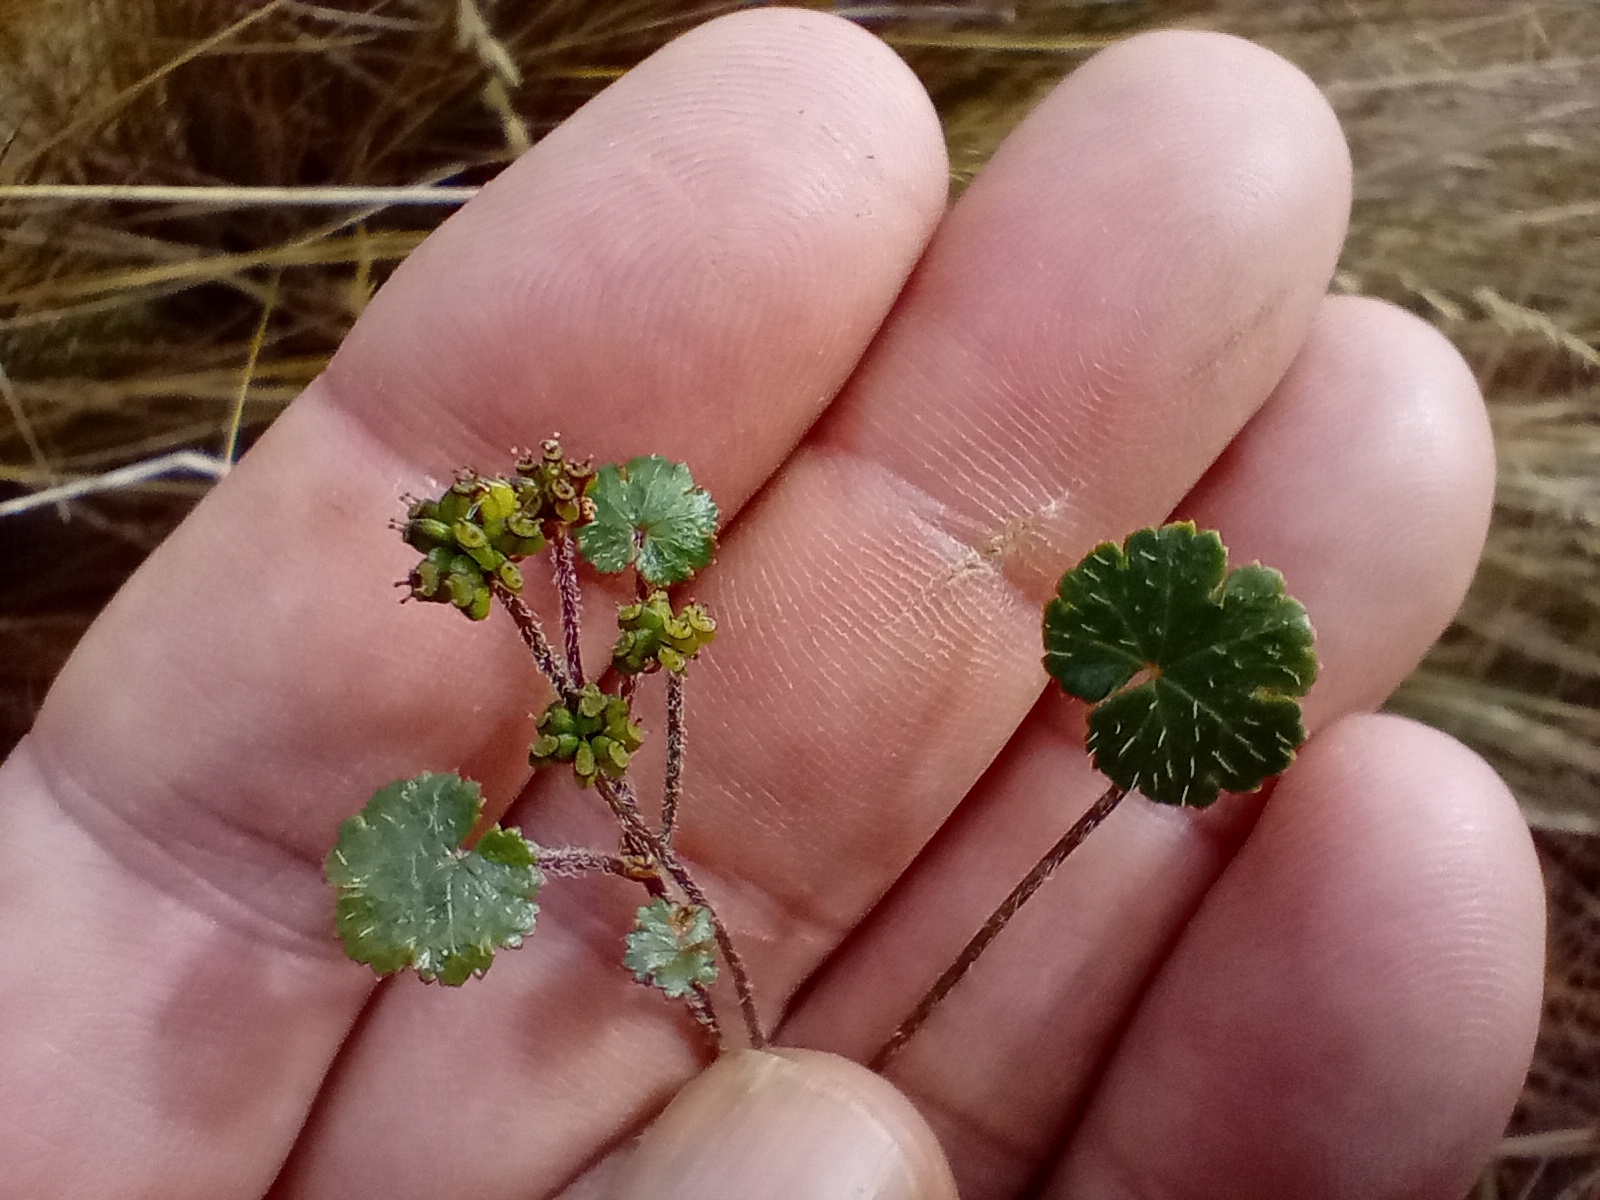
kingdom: Plantae
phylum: Tracheophyta
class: Magnoliopsida
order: Apiales
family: Araliaceae
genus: Hydrocotyle
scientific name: Hydrocotyle novae-zeelandiae
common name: New zealand pennywort
